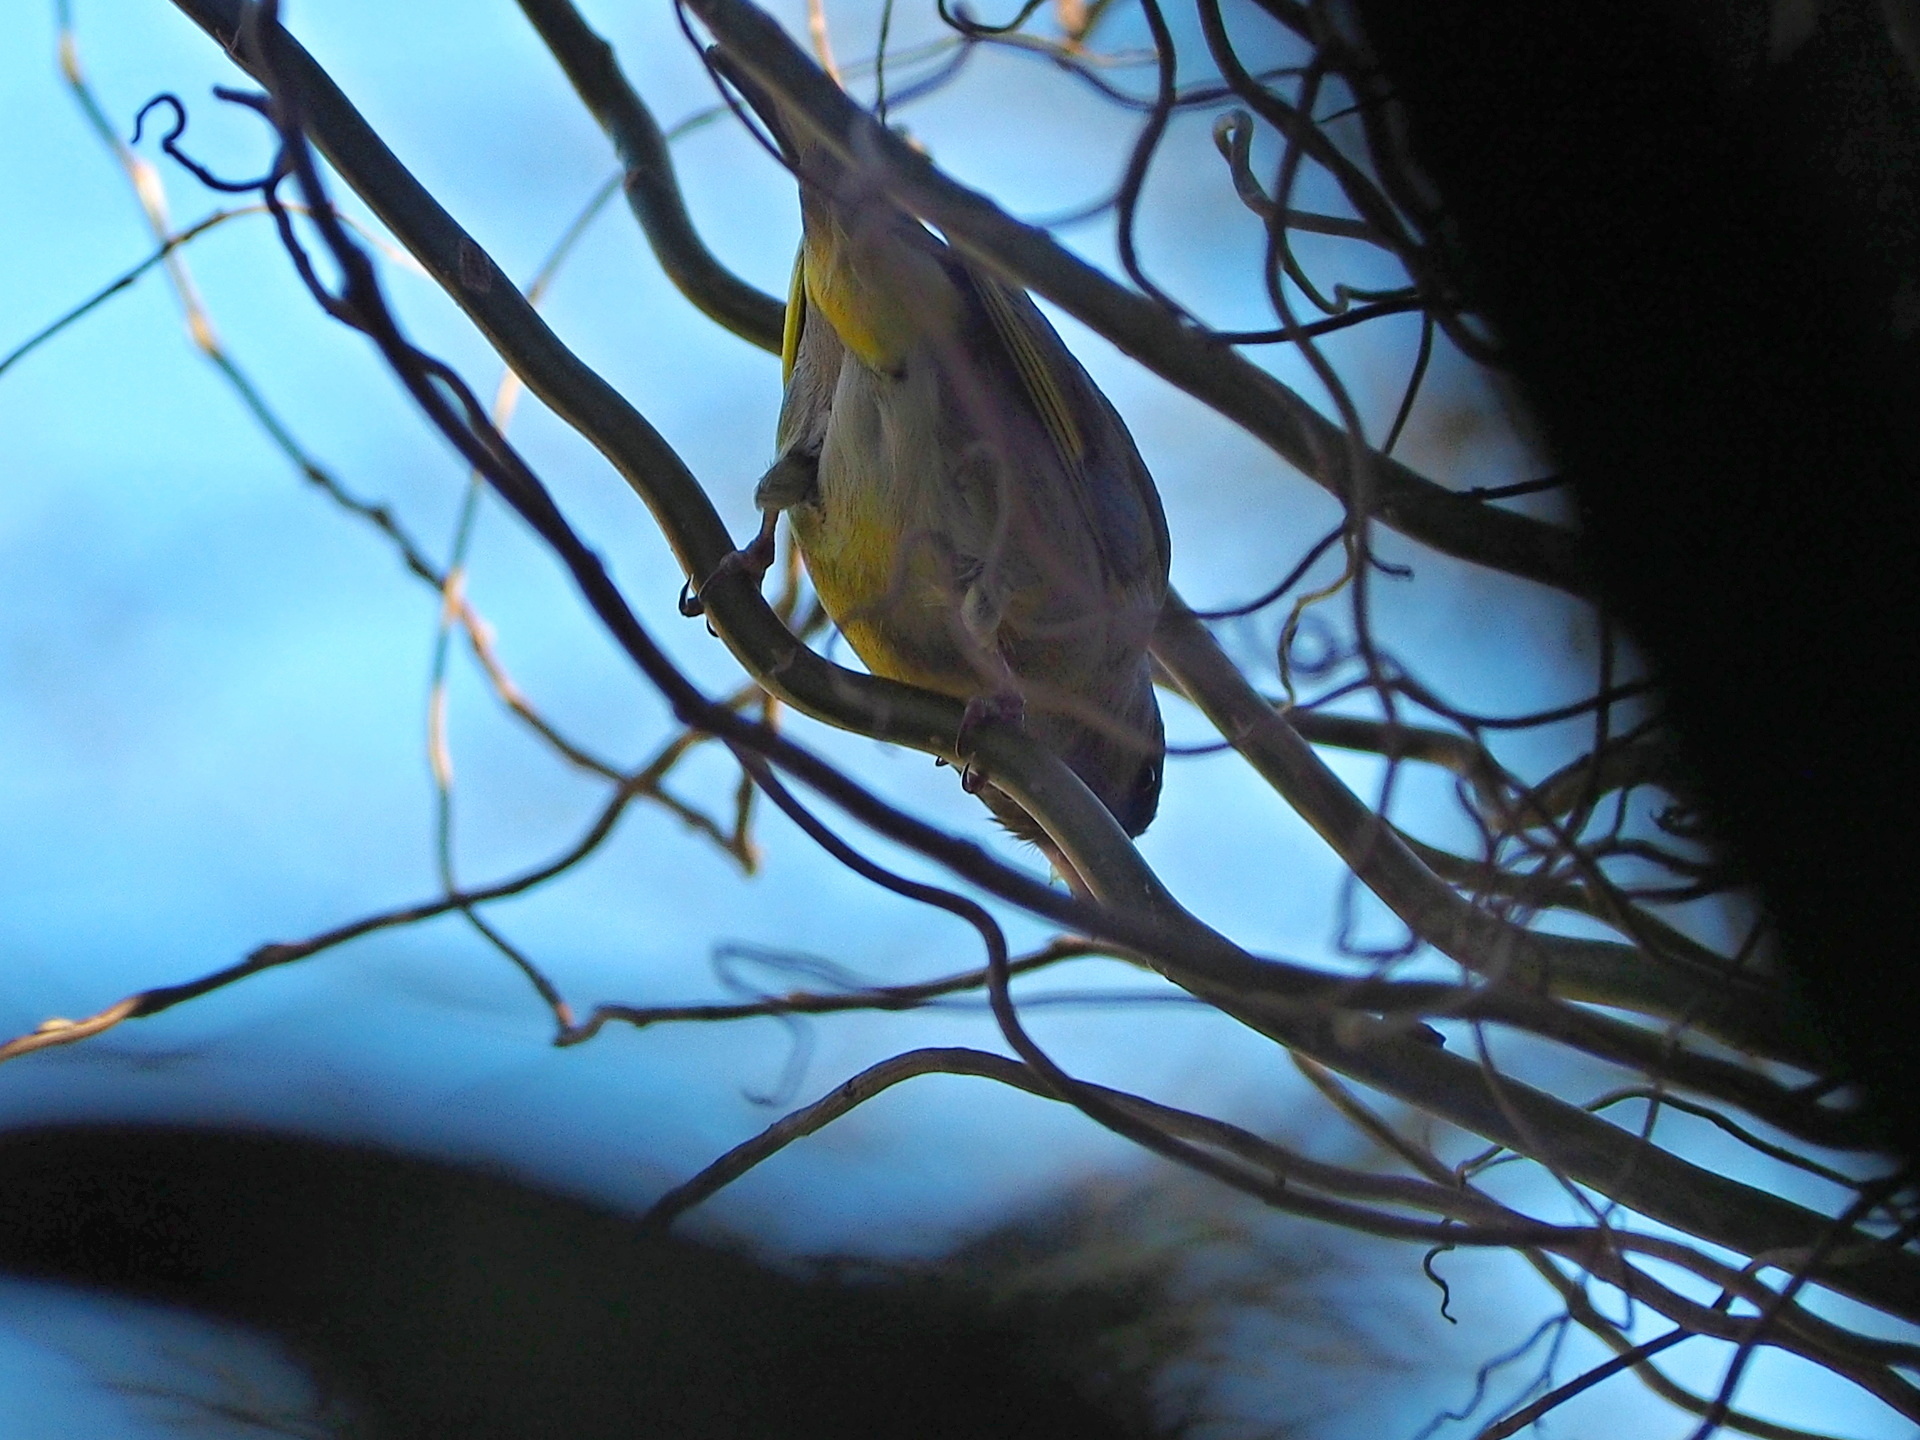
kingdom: Plantae
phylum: Tracheophyta
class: Liliopsida
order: Poales
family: Poaceae
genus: Chloris
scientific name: Chloris chloris
